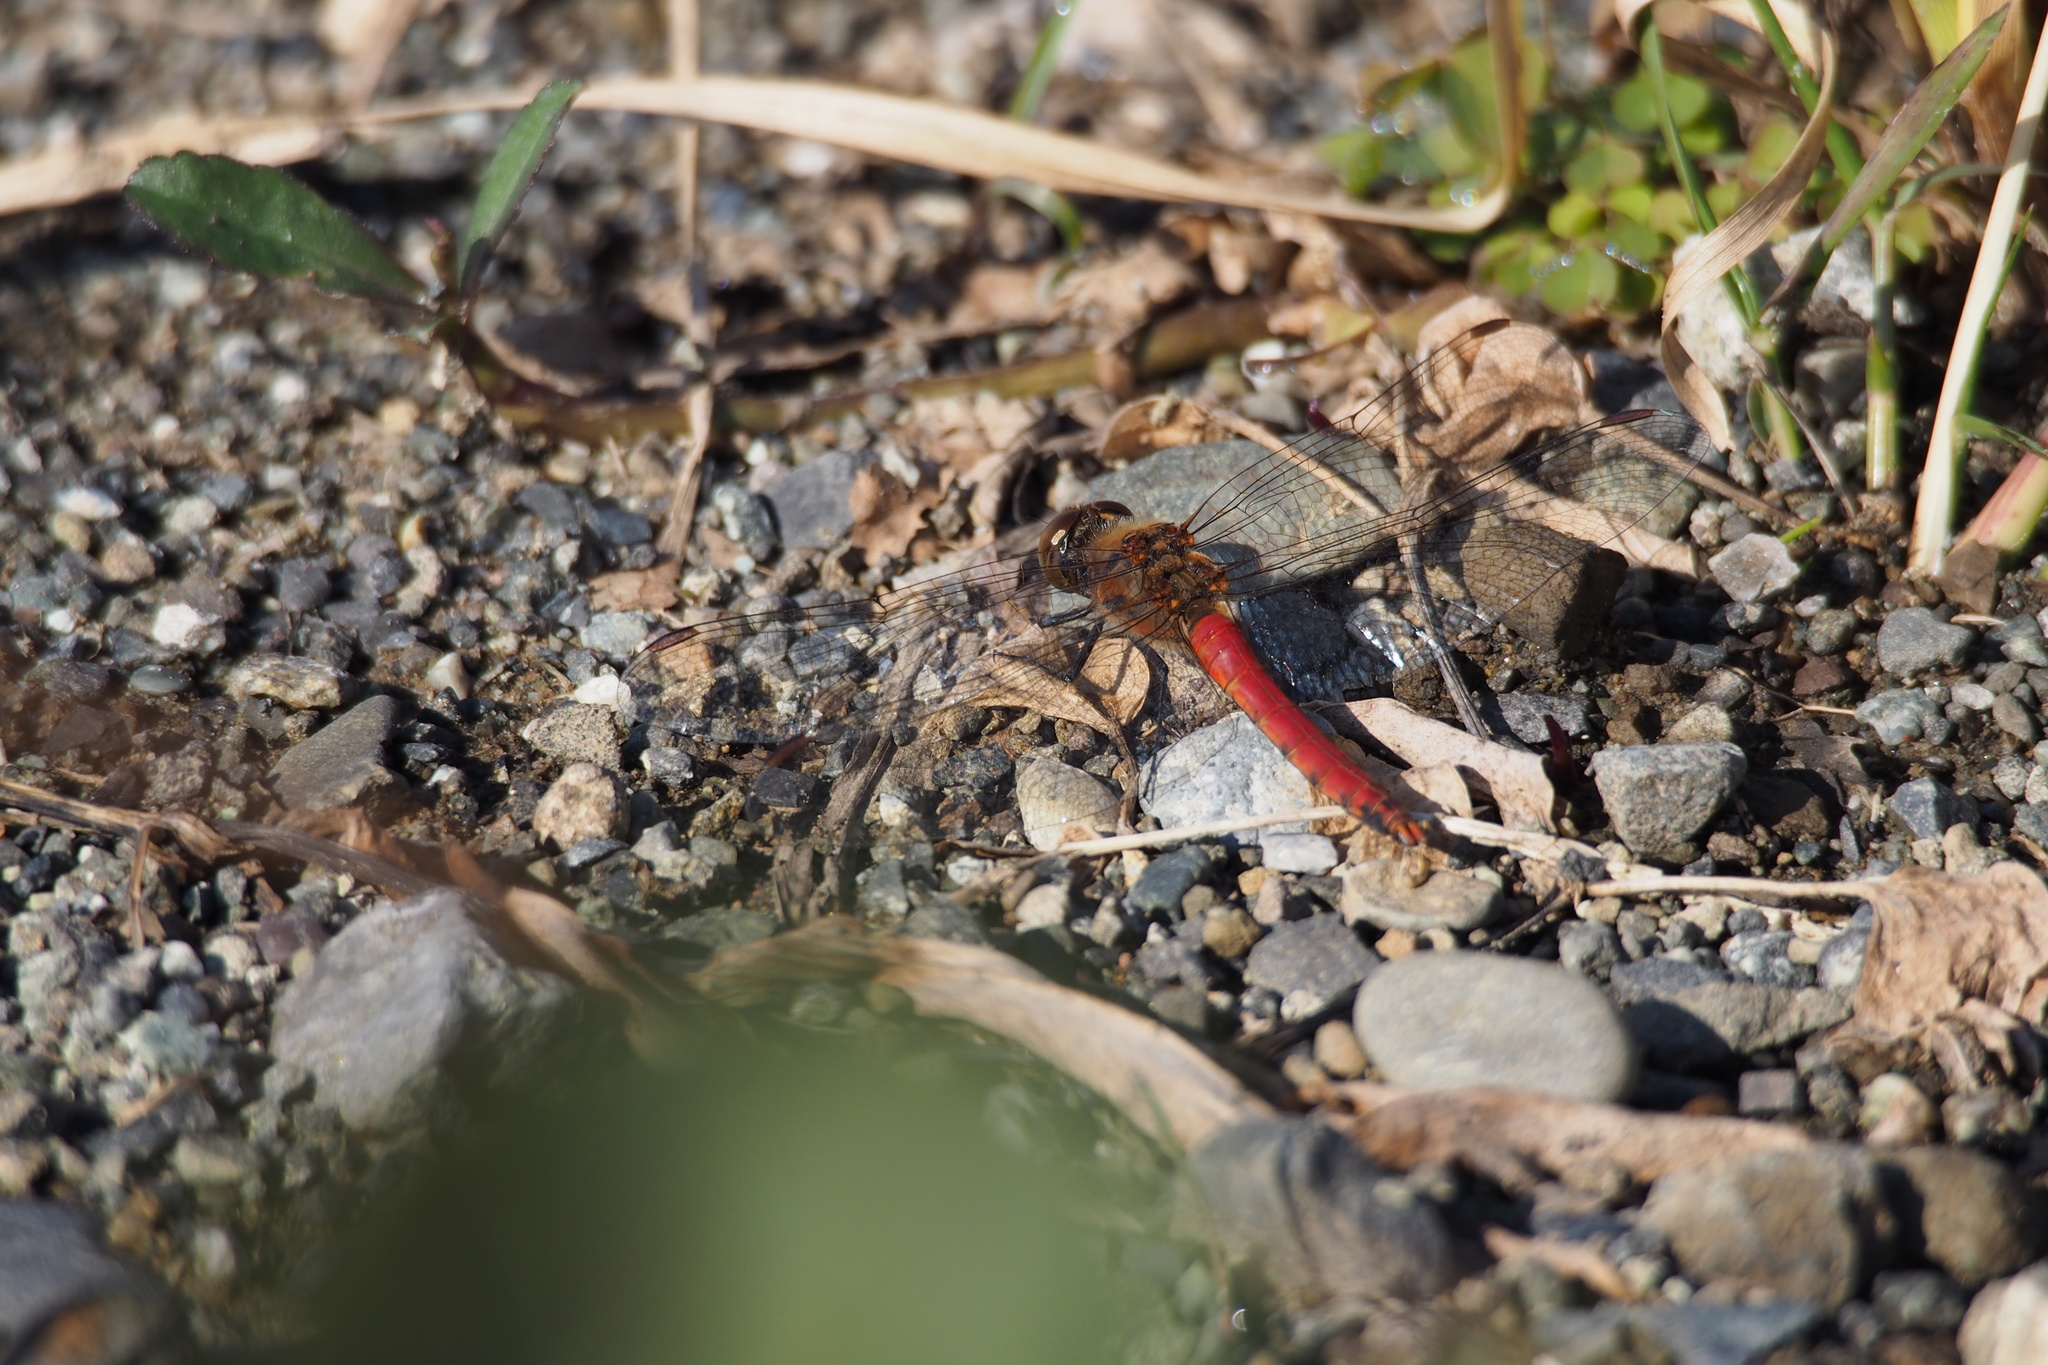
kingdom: Animalia
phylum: Arthropoda
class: Insecta
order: Odonata
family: Libellulidae
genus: Sympetrum
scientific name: Sympetrum frequens
